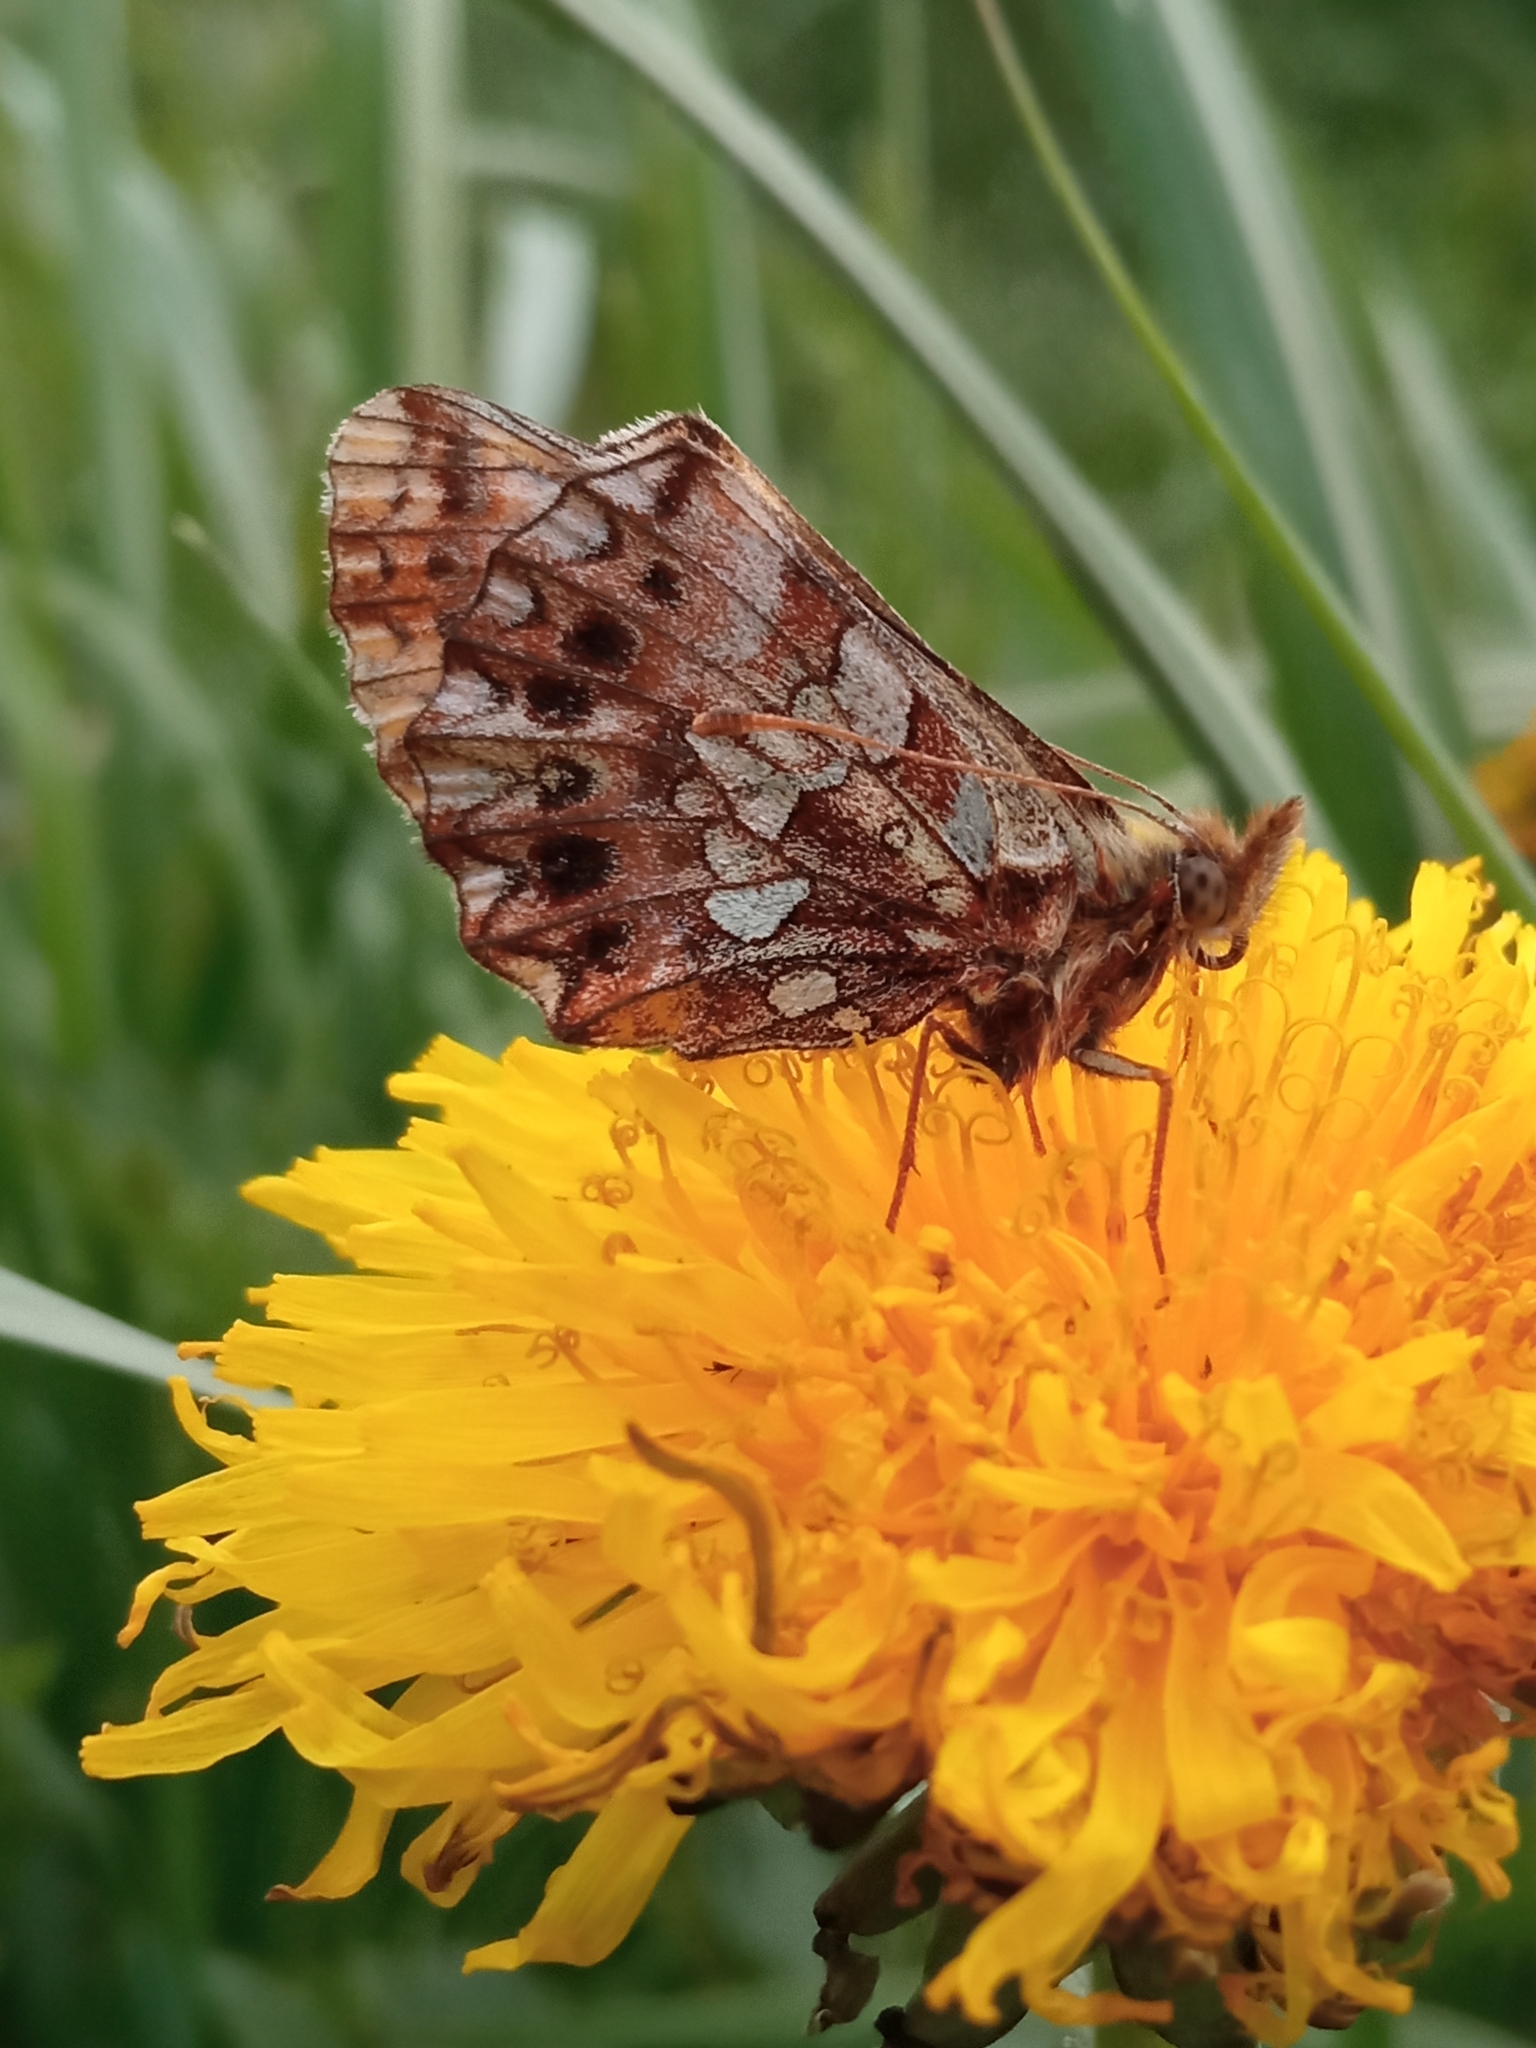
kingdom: Animalia
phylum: Arthropoda
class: Insecta
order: Lepidoptera
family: Nymphalidae
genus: Boloria
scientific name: Boloria dia
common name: Weaver's fritillary
